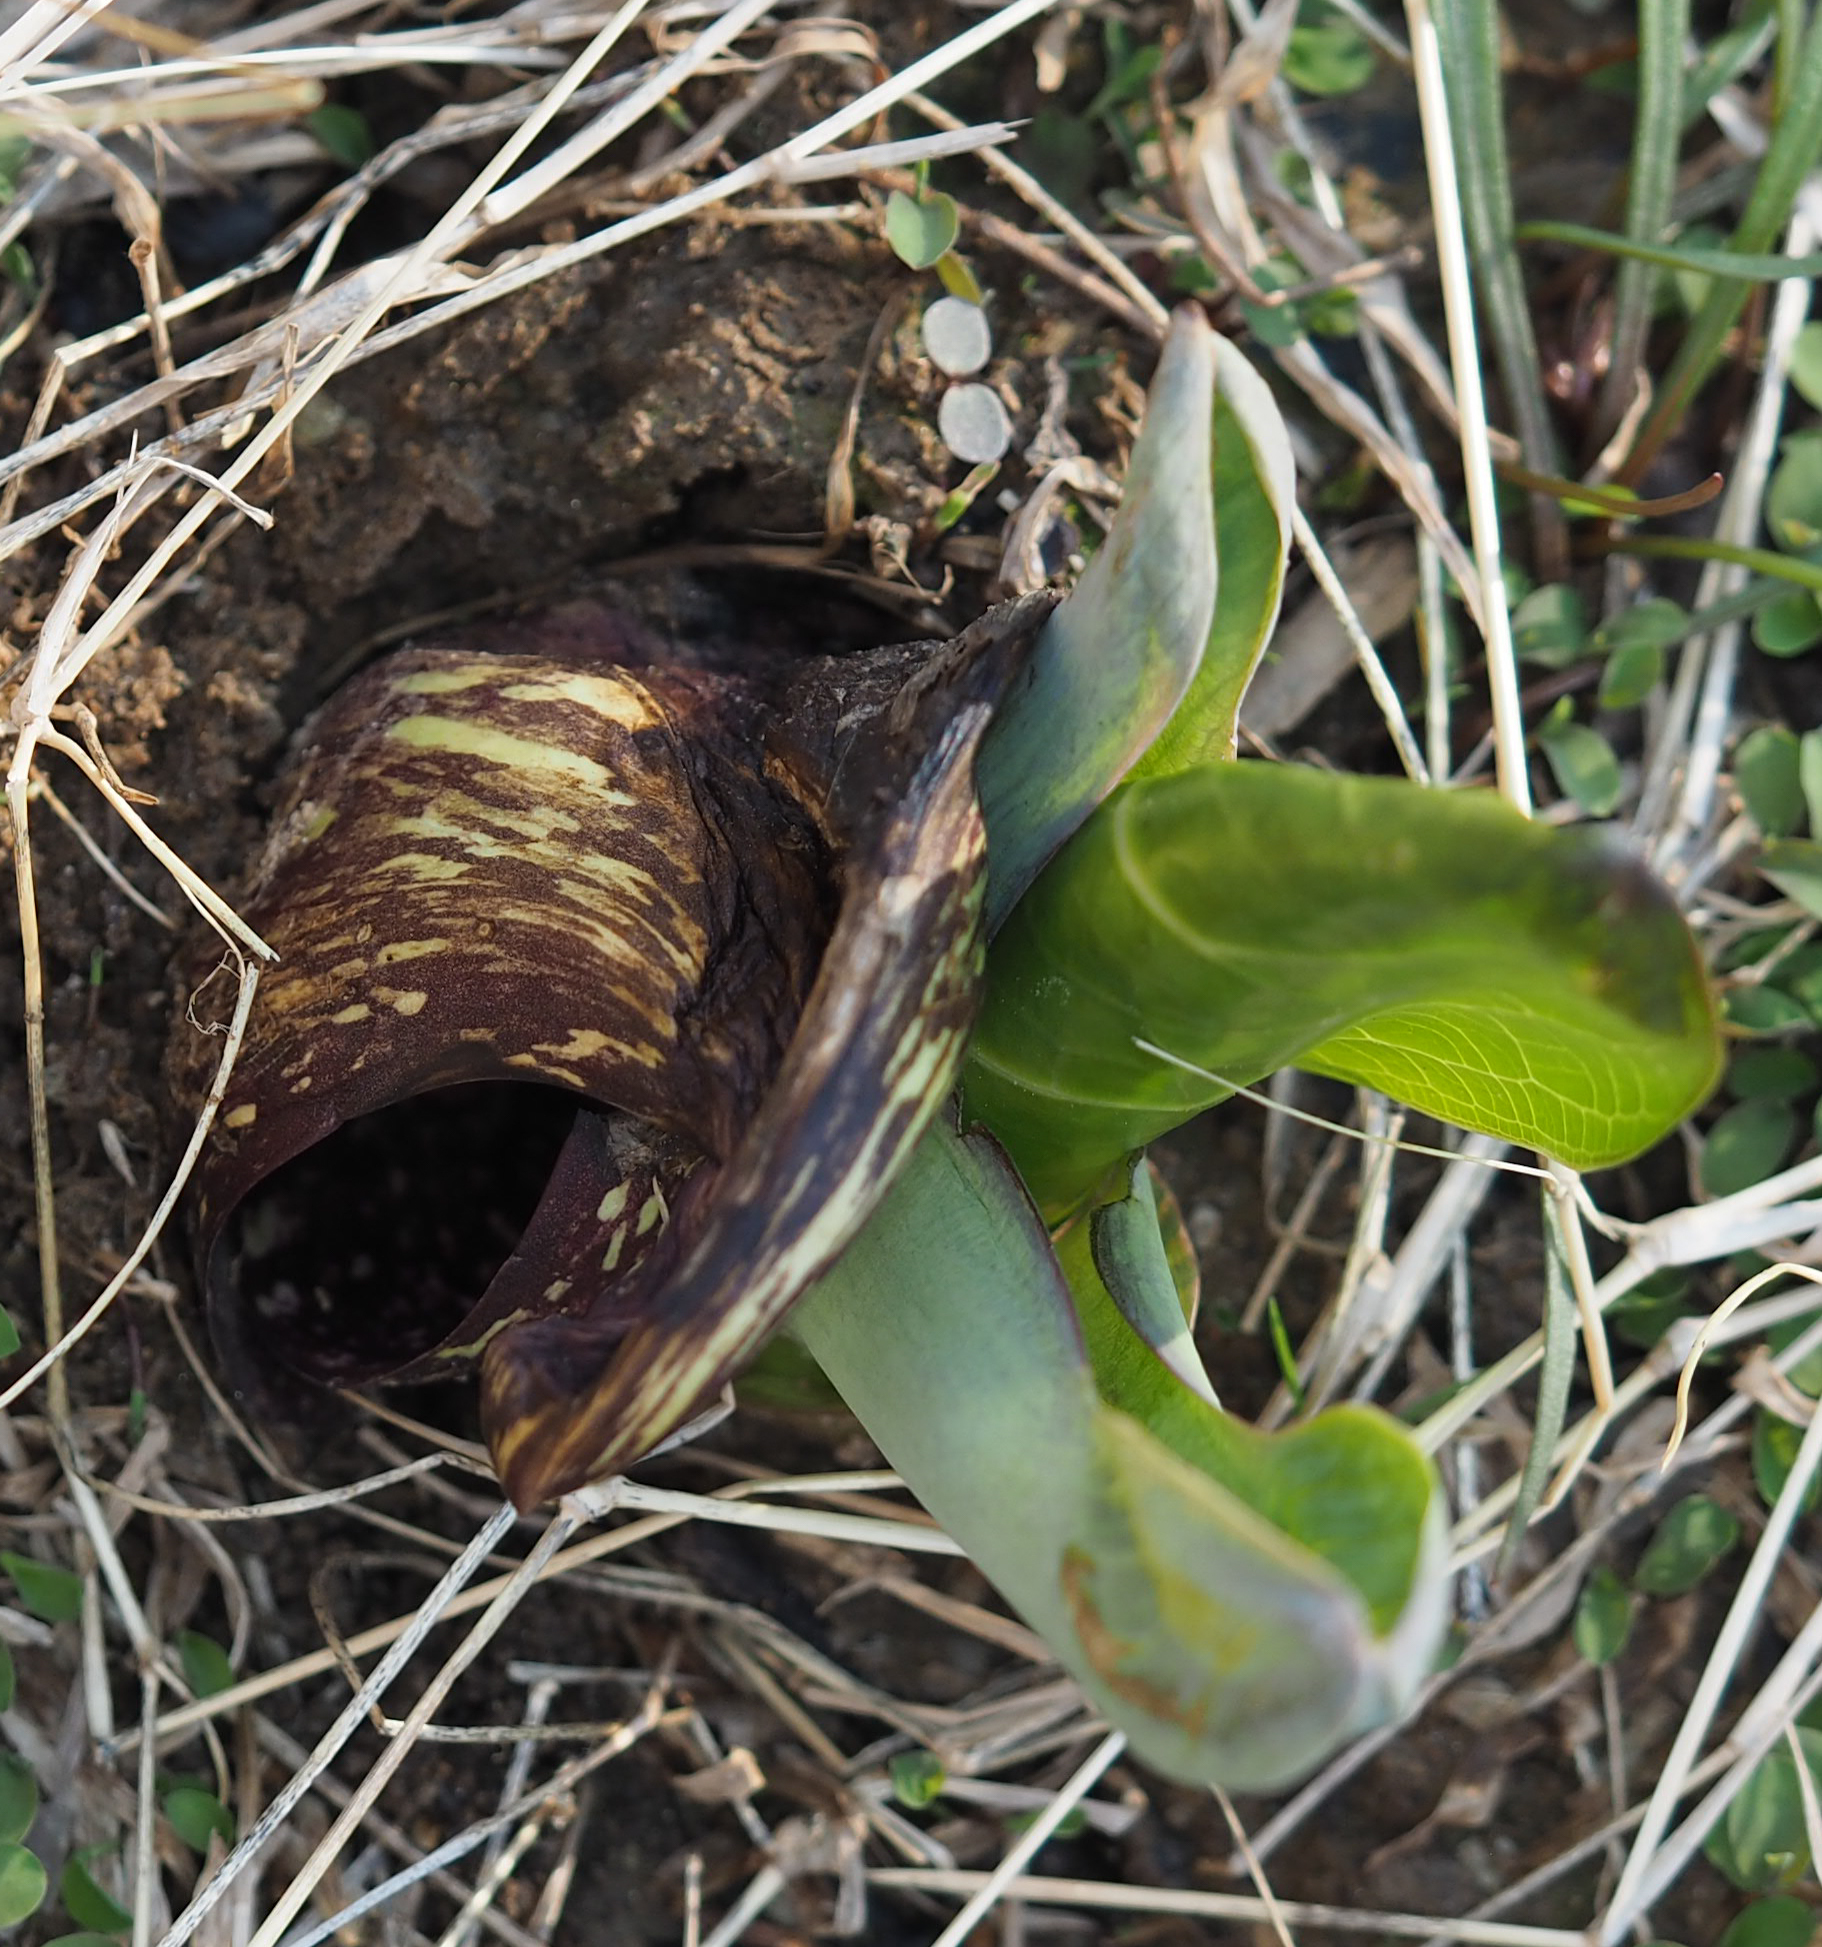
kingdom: Plantae
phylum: Tracheophyta
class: Liliopsida
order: Alismatales
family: Araceae
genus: Symplocarpus
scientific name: Symplocarpus foetidus
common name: Eastern skunk cabbage
